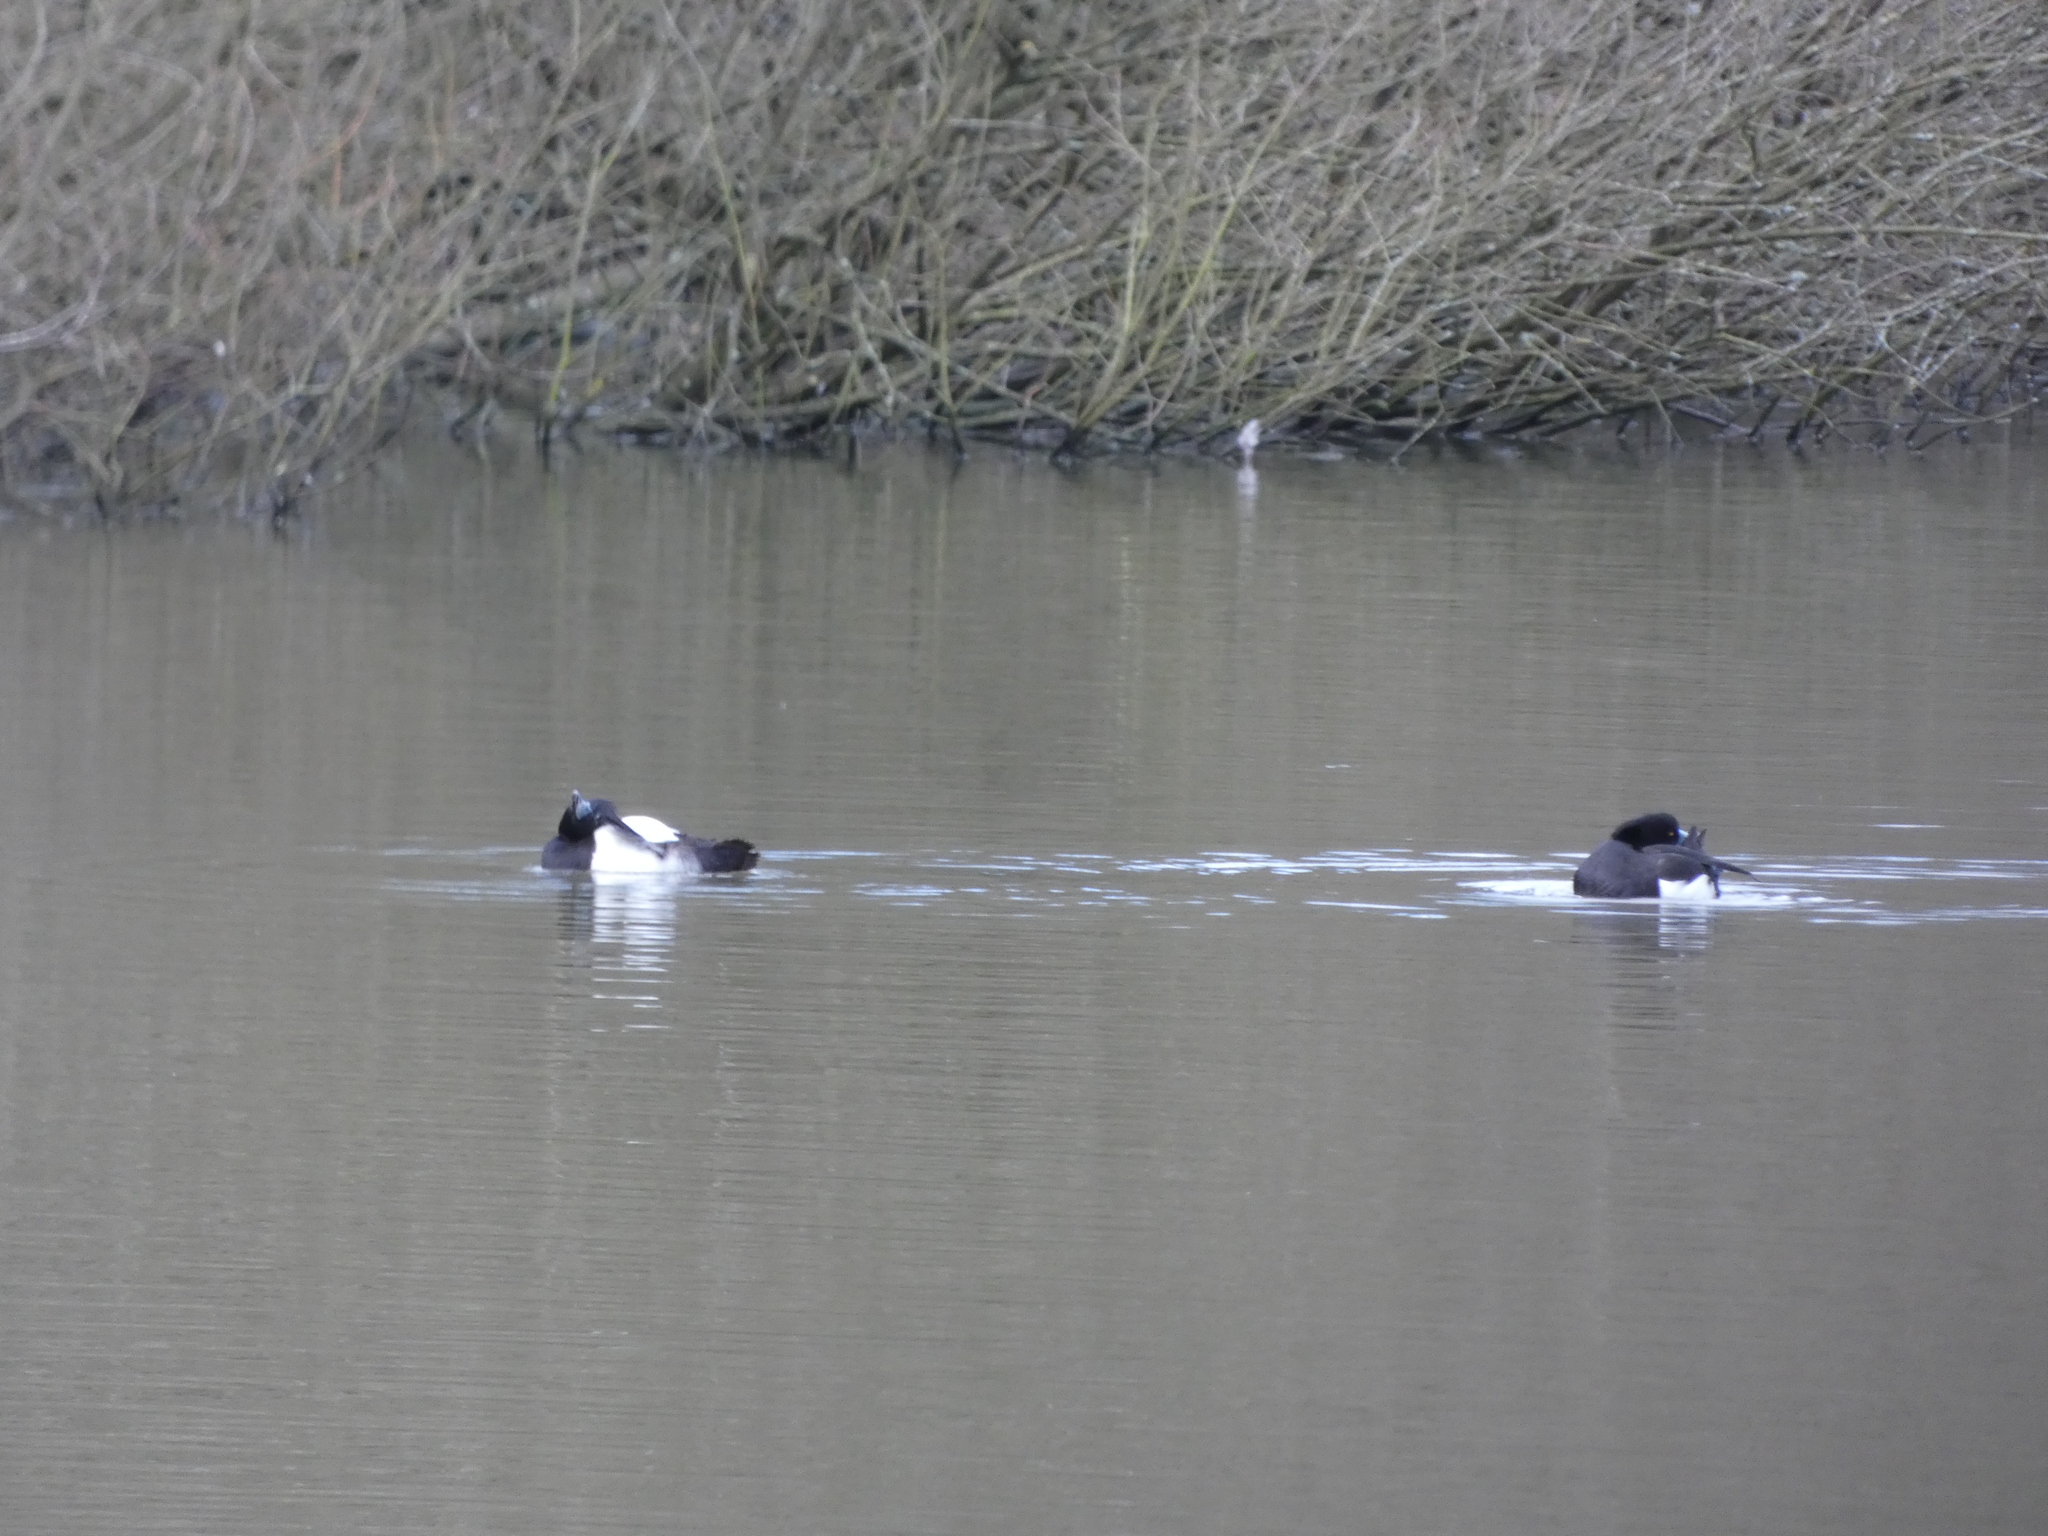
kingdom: Animalia
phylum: Chordata
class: Aves
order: Anseriformes
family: Anatidae
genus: Aythya
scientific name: Aythya fuligula
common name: Tufted duck
